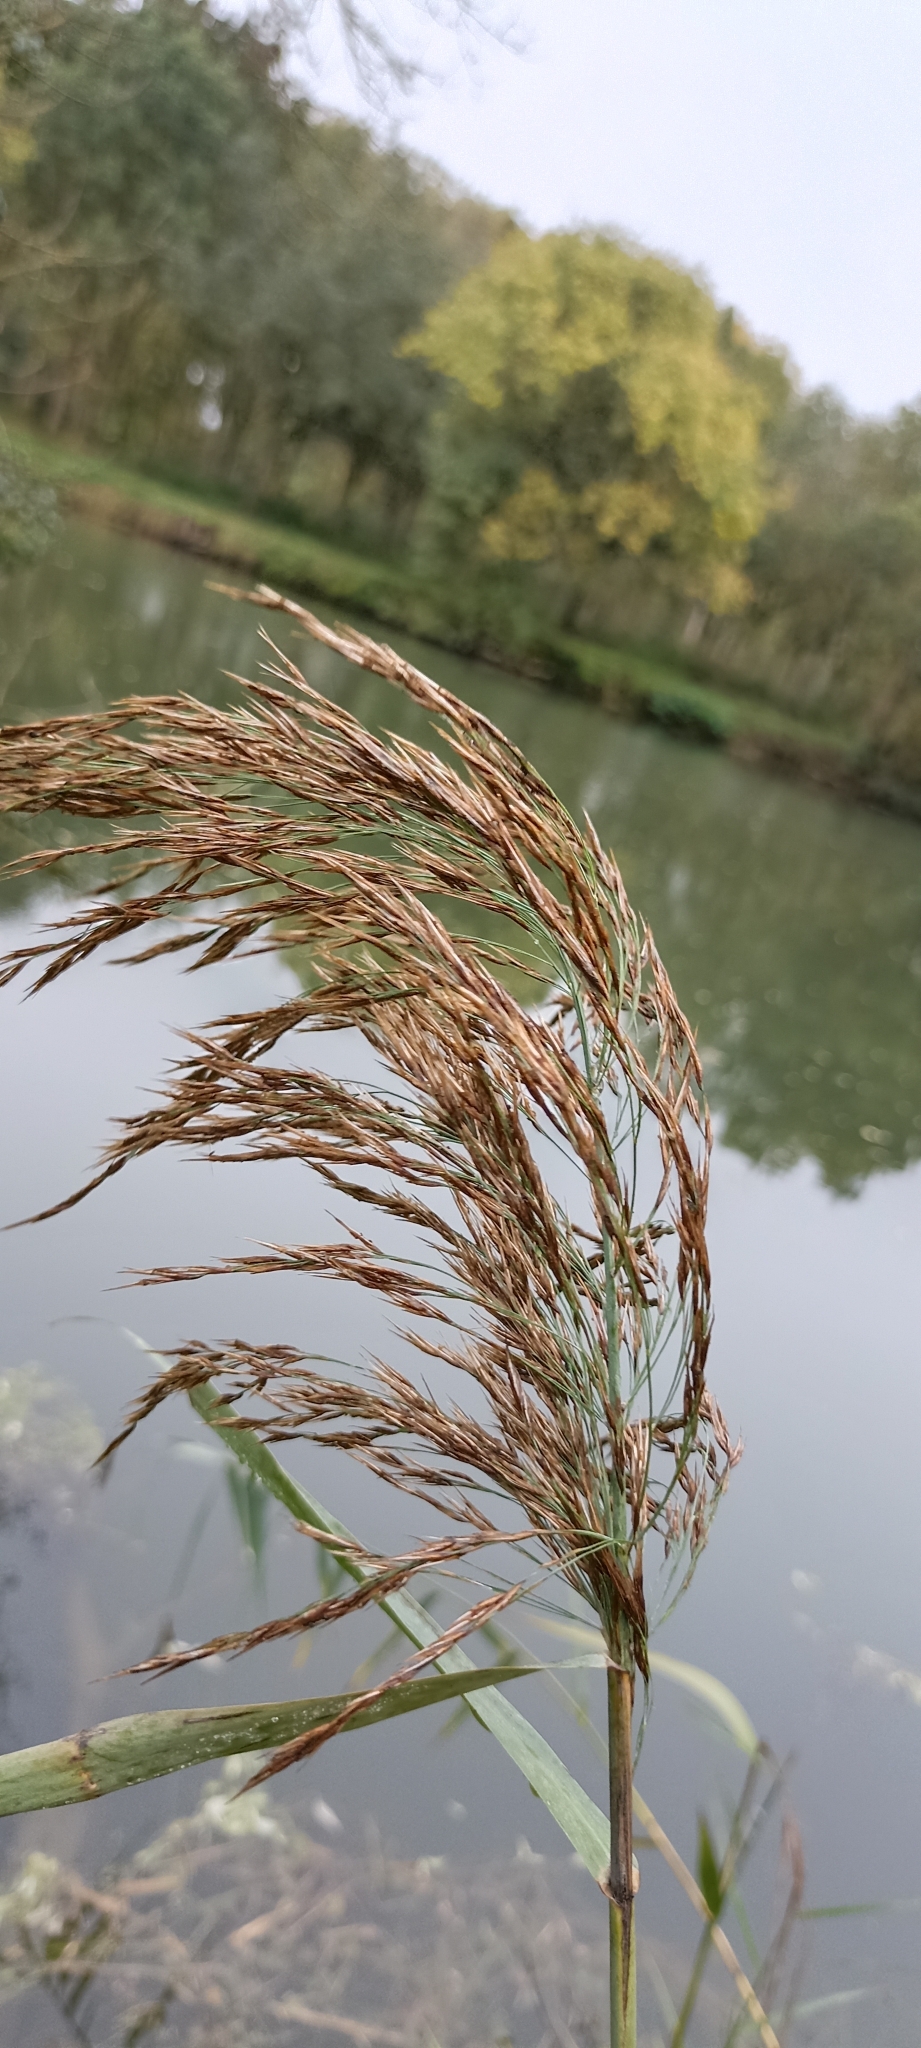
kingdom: Plantae
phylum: Tracheophyta
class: Liliopsida
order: Poales
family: Poaceae
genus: Phragmites
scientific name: Phragmites australis
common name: Common reed
